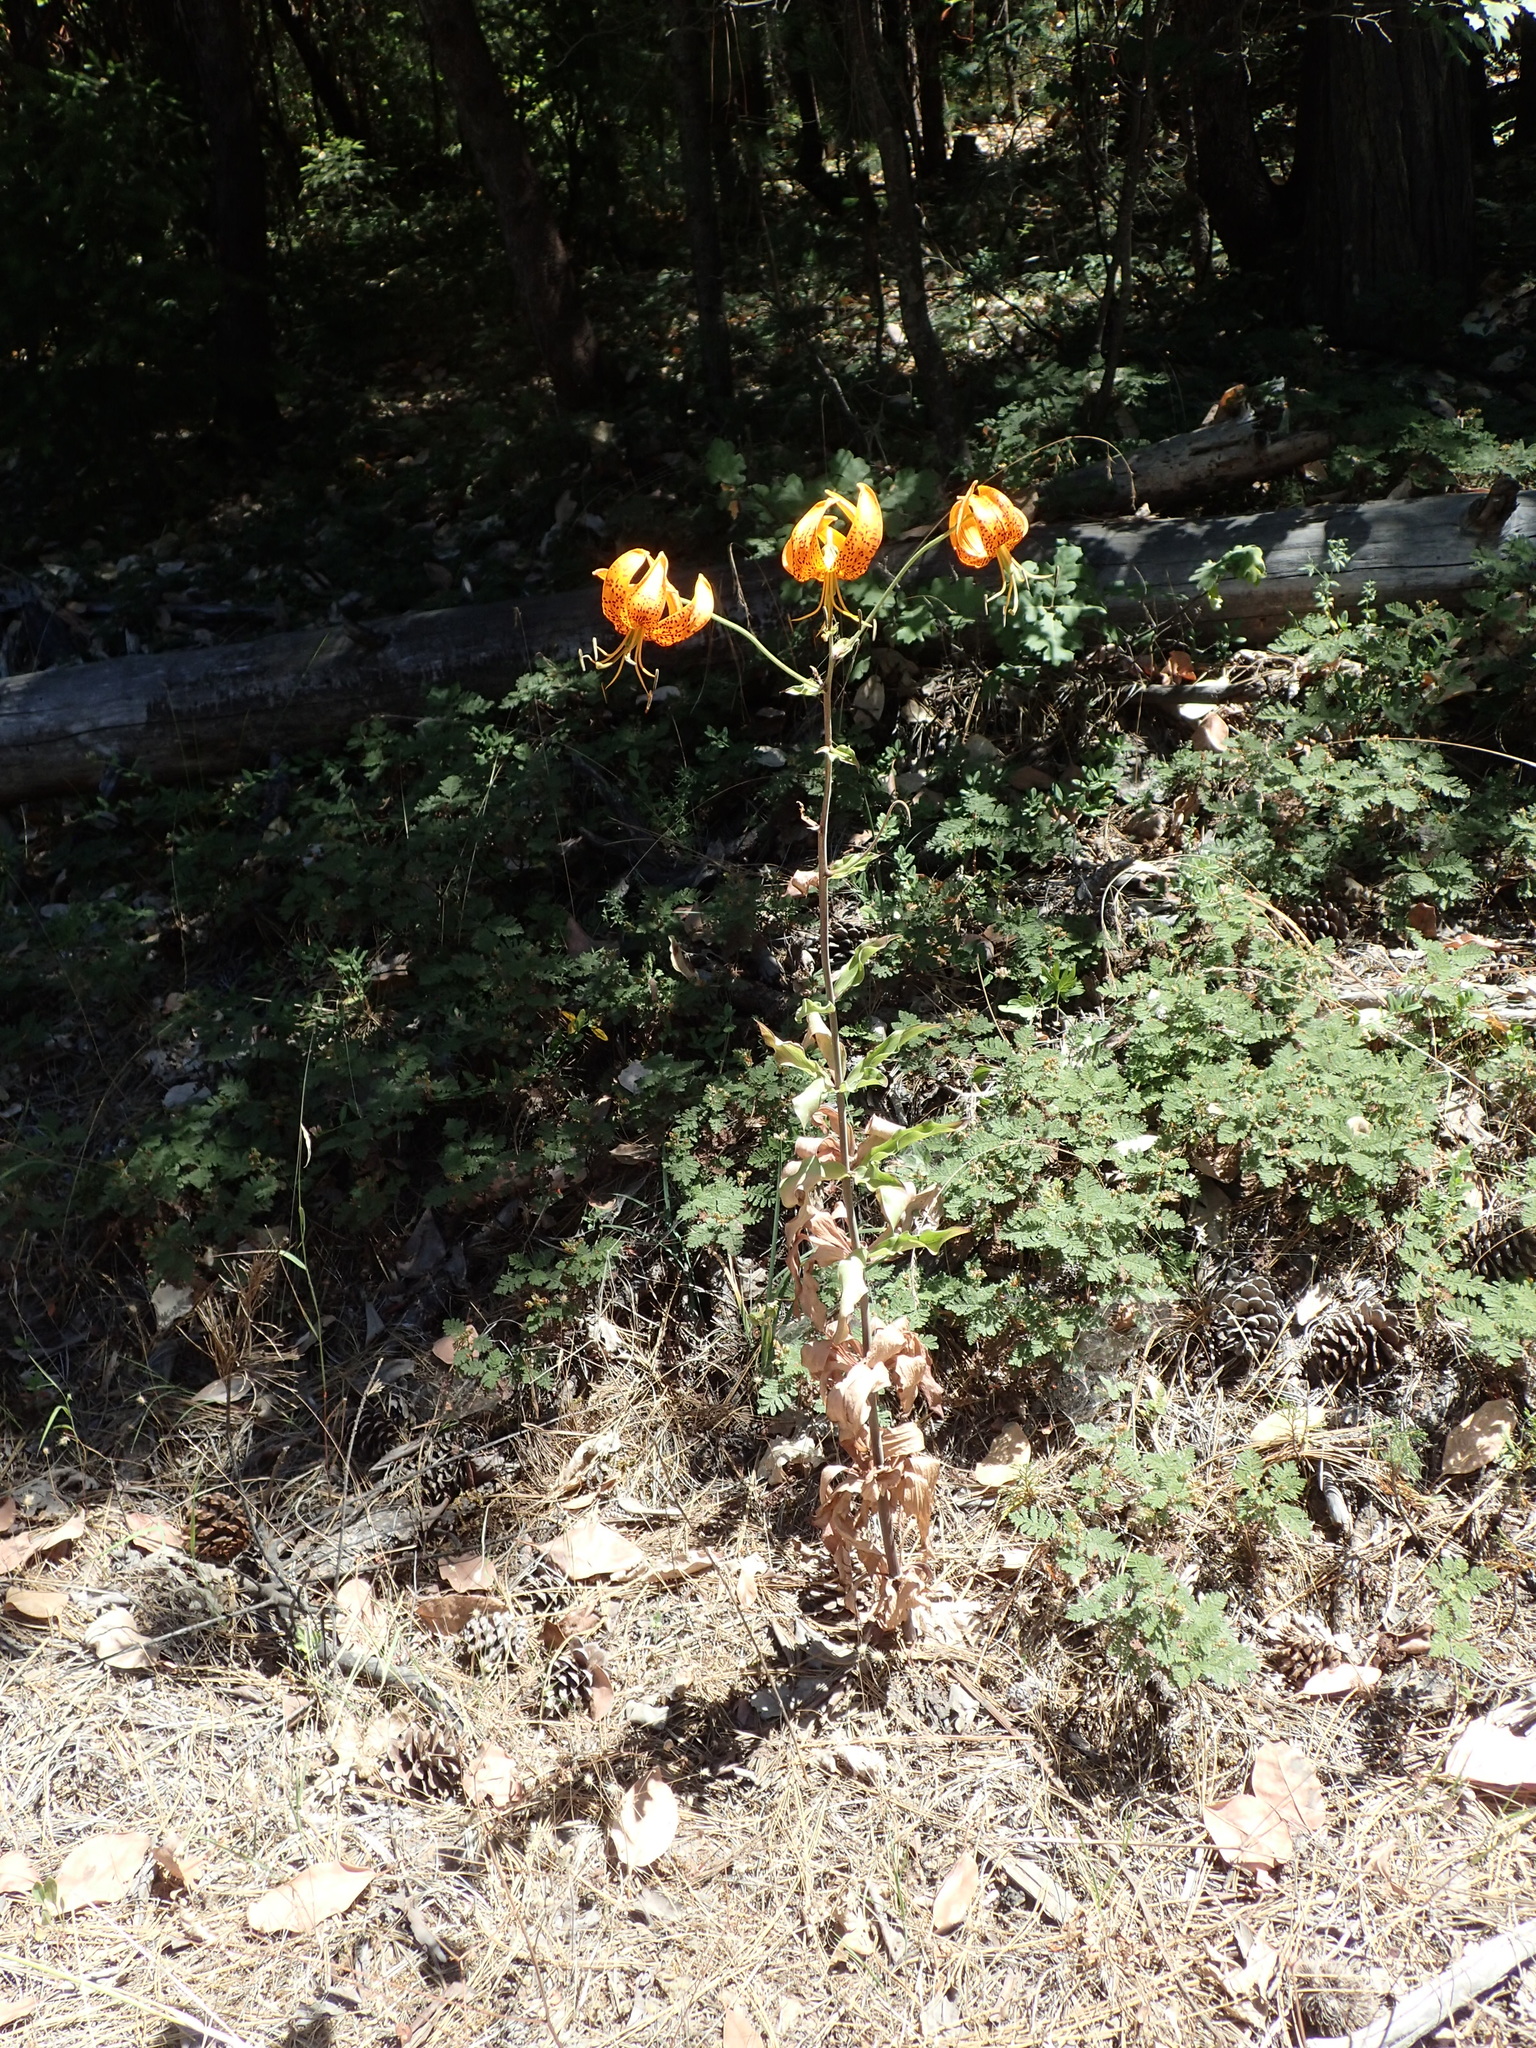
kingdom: Plantae
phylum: Tracheophyta
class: Liliopsida
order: Liliales
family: Liliaceae
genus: Lilium
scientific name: Lilium humboldtii
